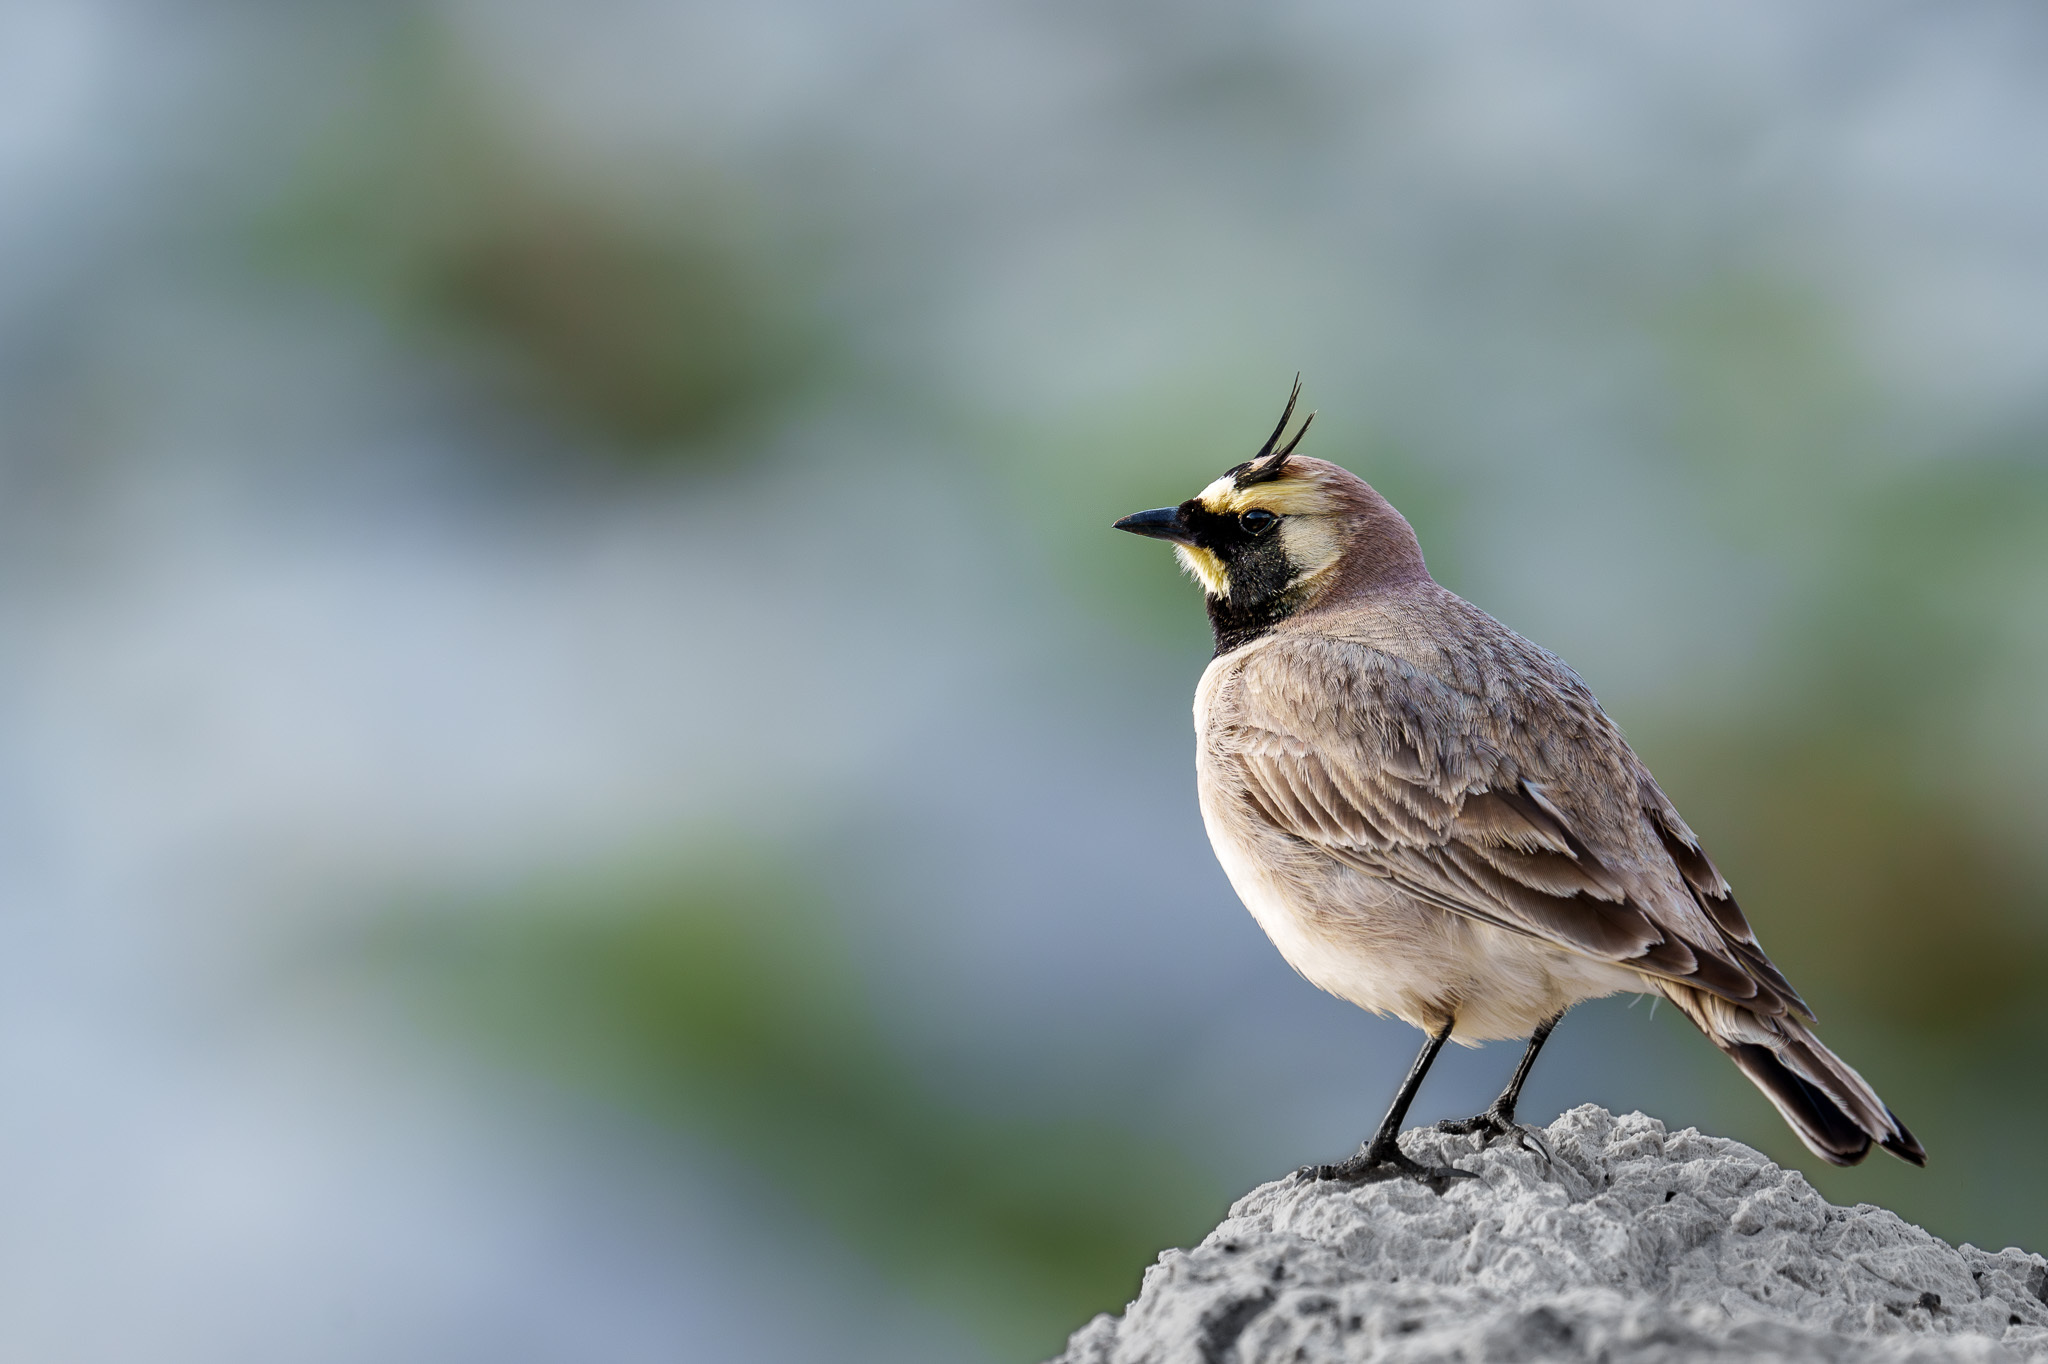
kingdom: Animalia
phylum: Chordata
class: Aves
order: Passeriformes
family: Alaudidae
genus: Eremophila
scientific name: Eremophila alpestris
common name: Horned lark
